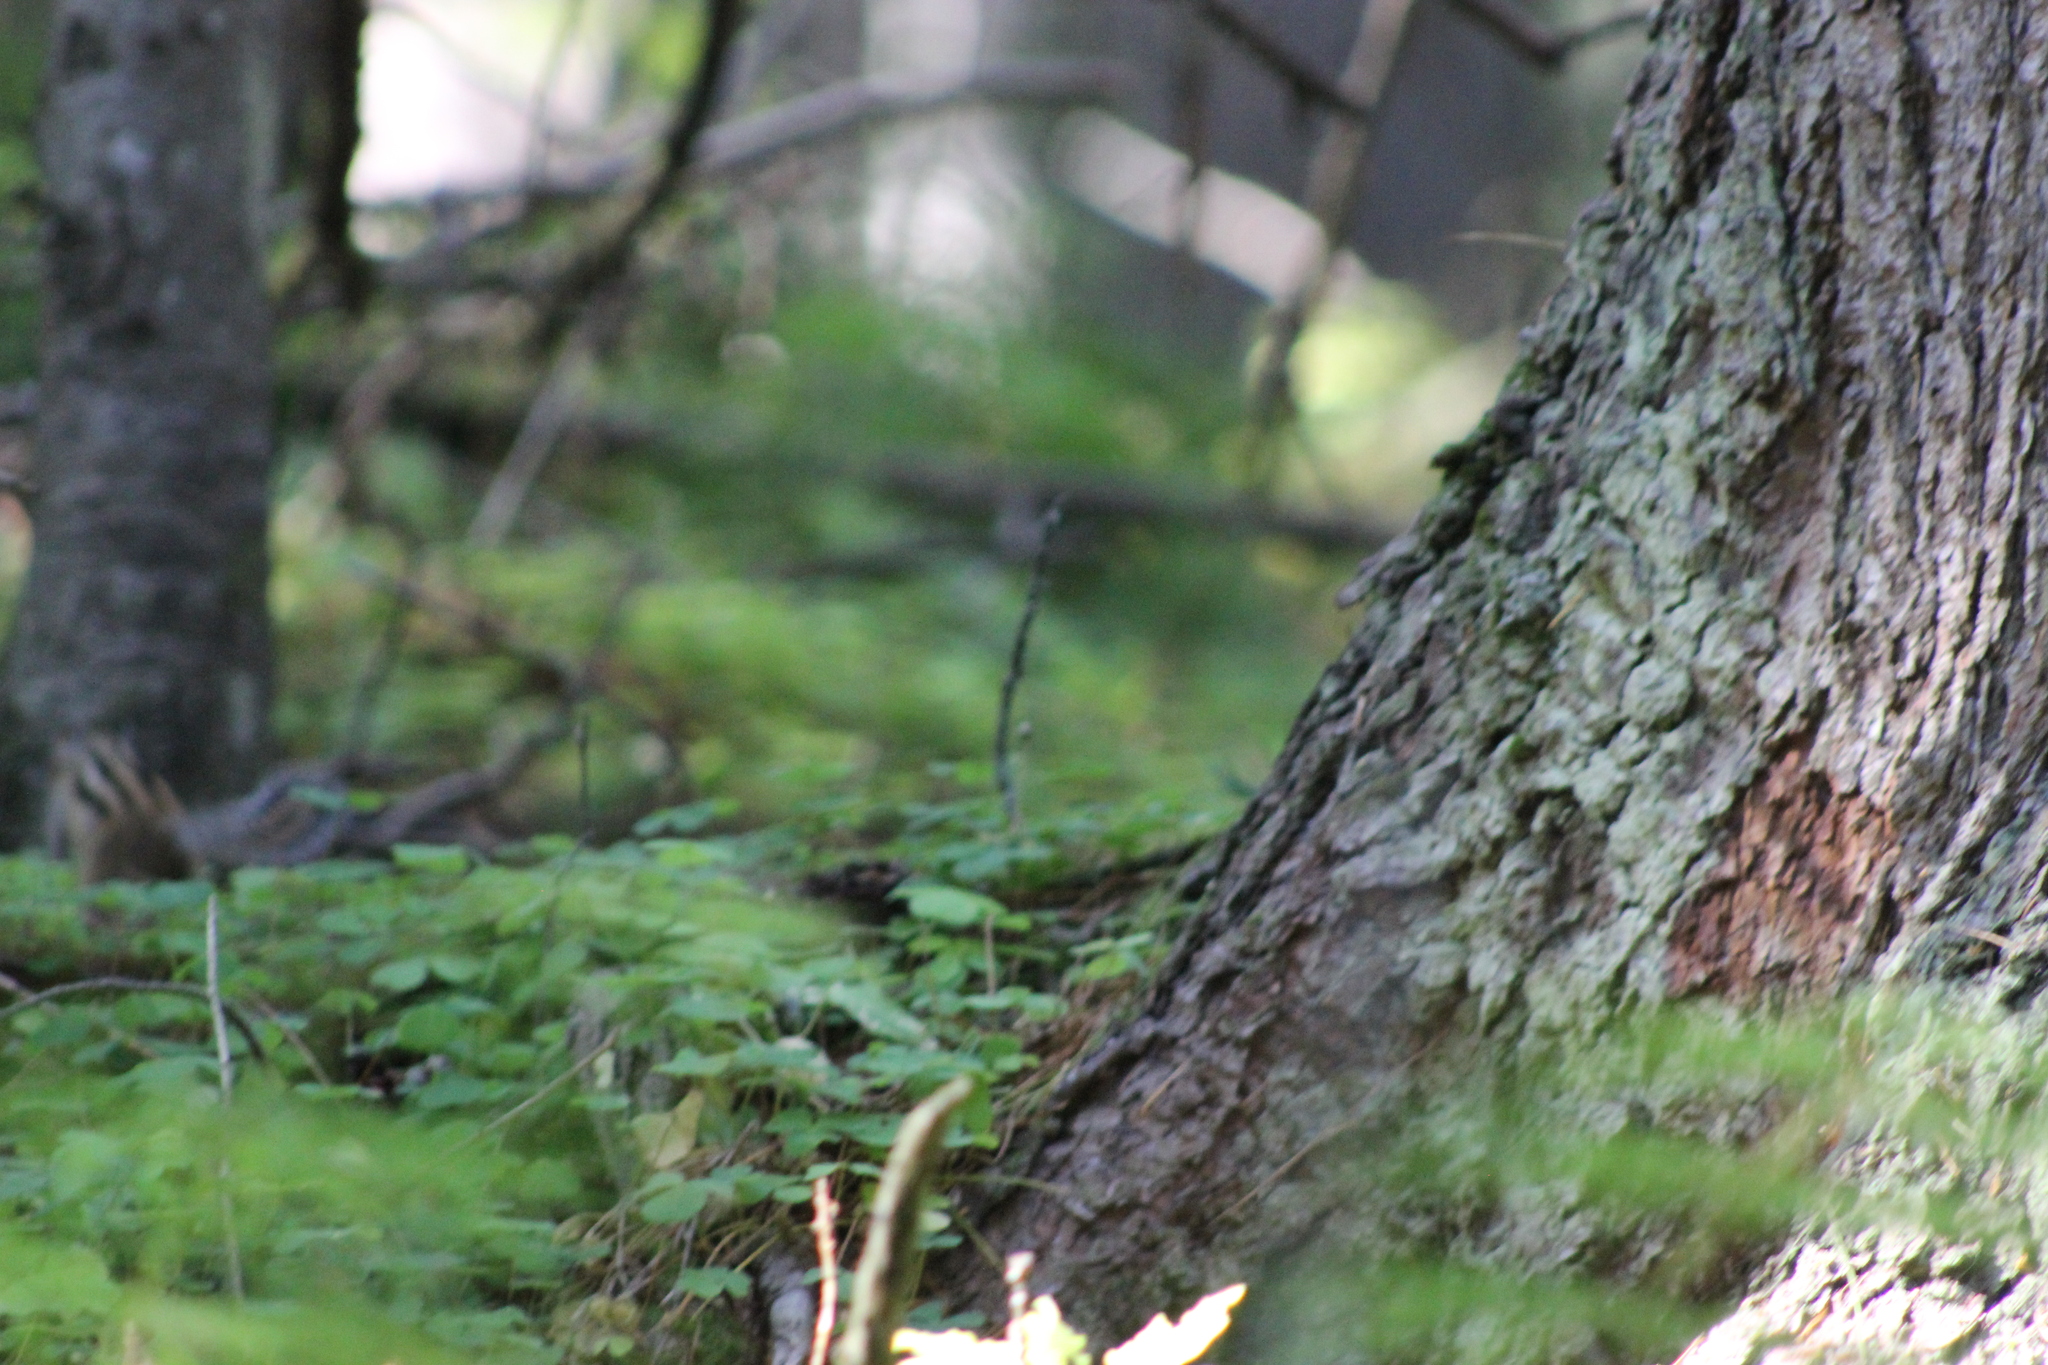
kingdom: Animalia
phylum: Chordata
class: Mammalia
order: Rodentia
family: Sciuridae
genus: Tamias
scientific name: Tamias sibiricus
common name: Siberian chipmunk
